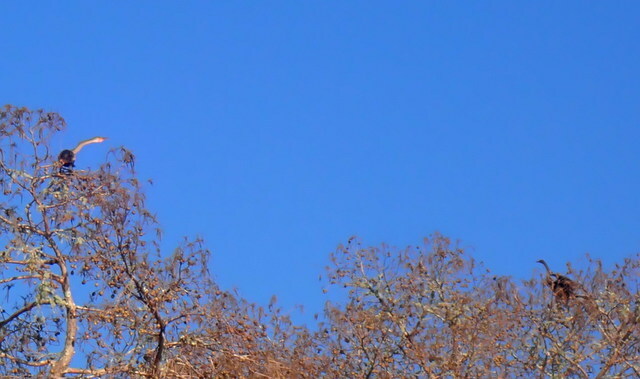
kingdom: Animalia
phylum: Chordata
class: Aves
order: Suliformes
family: Anhingidae
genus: Anhinga
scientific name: Anhinga anhinga
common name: Anhinga
